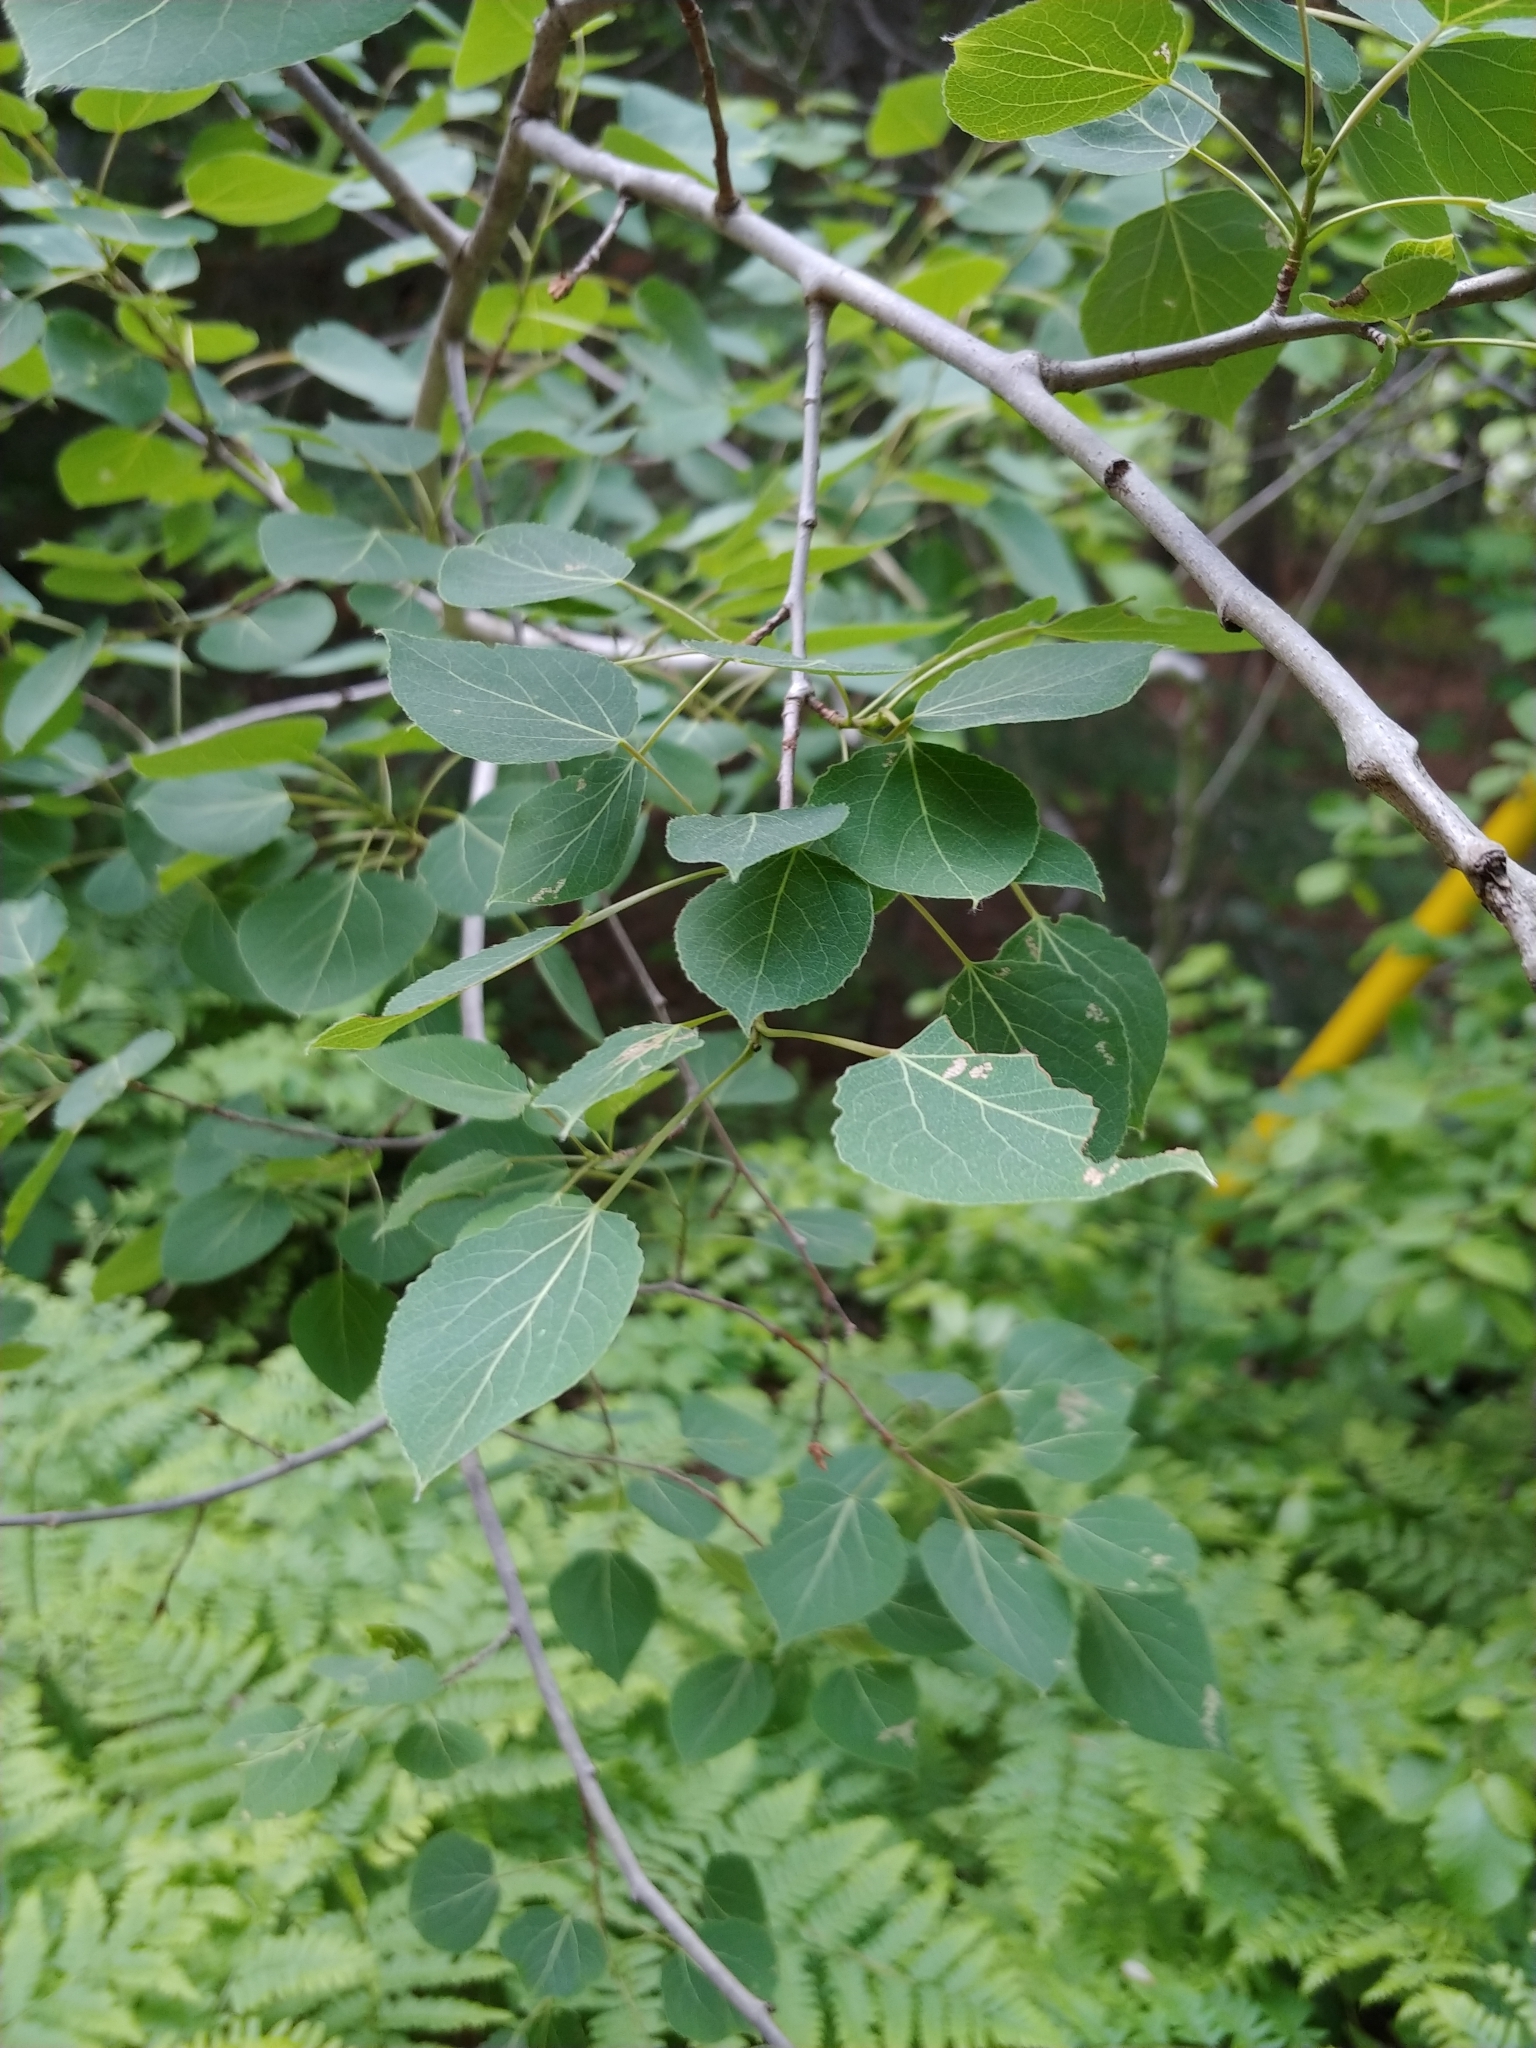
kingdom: Plantae
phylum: Tracheophyta
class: Magnoliopsida
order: Malpighiales
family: Salicaceae
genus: Populus
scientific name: Populus tremuloides
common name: Quaking aspen
